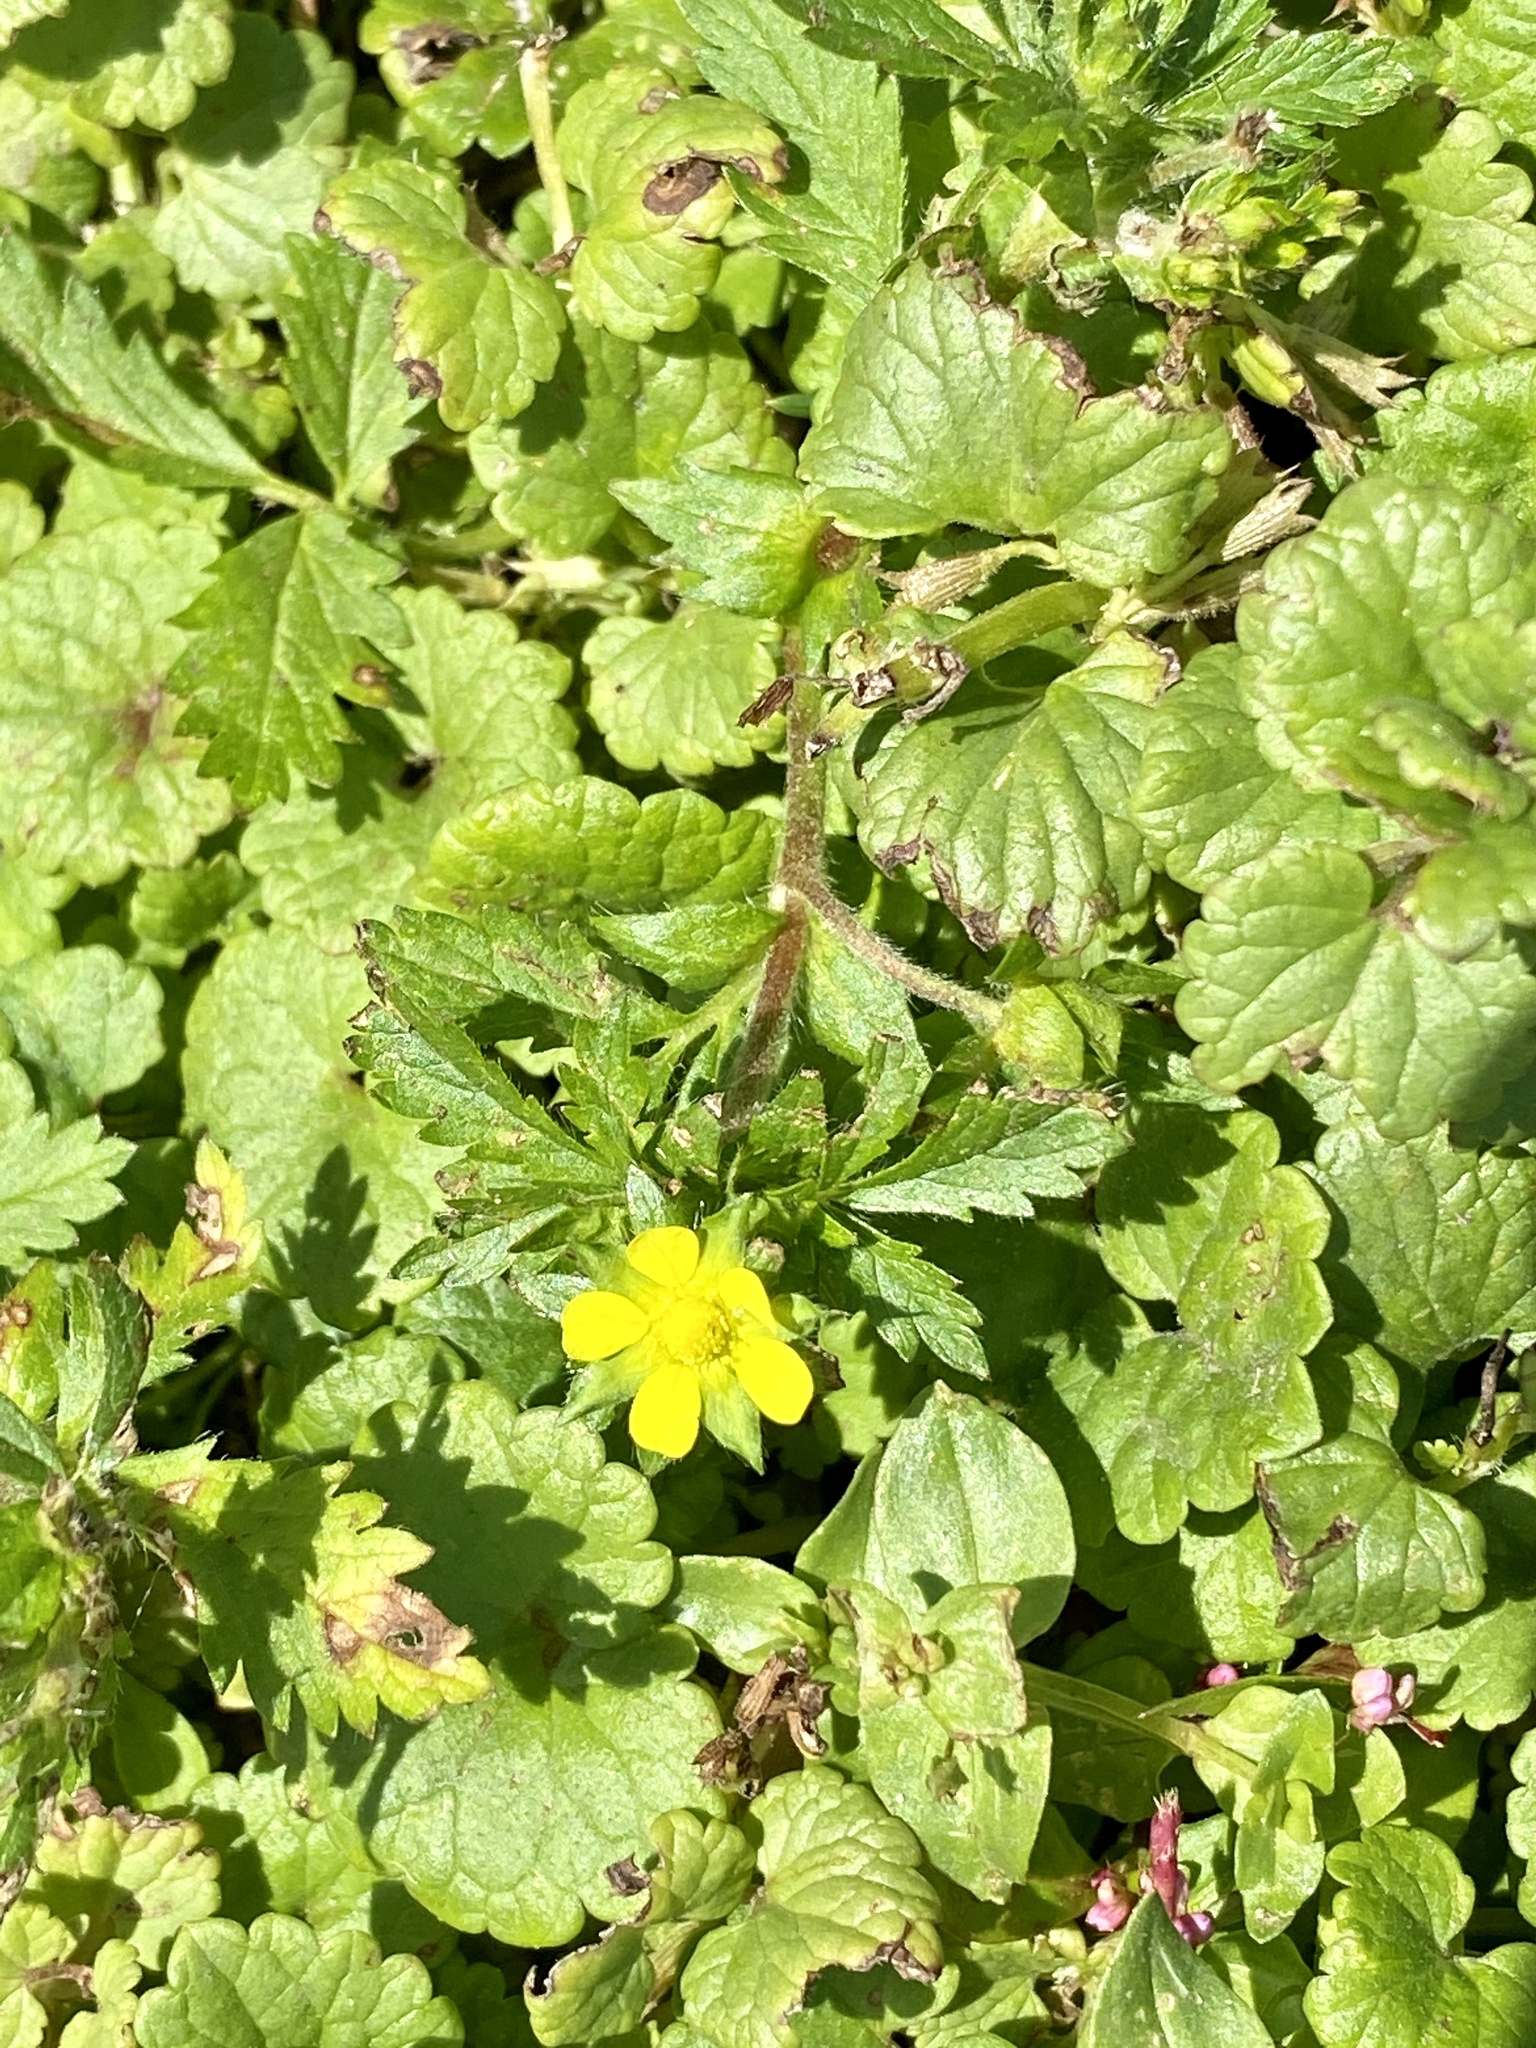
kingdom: Plantae
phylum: Tracheophyta
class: Magnoliopsida
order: Rosales
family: Rosaceae
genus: Potentilla
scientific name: Potentilla norvegica
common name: Ternate-leaved cinquefoil
